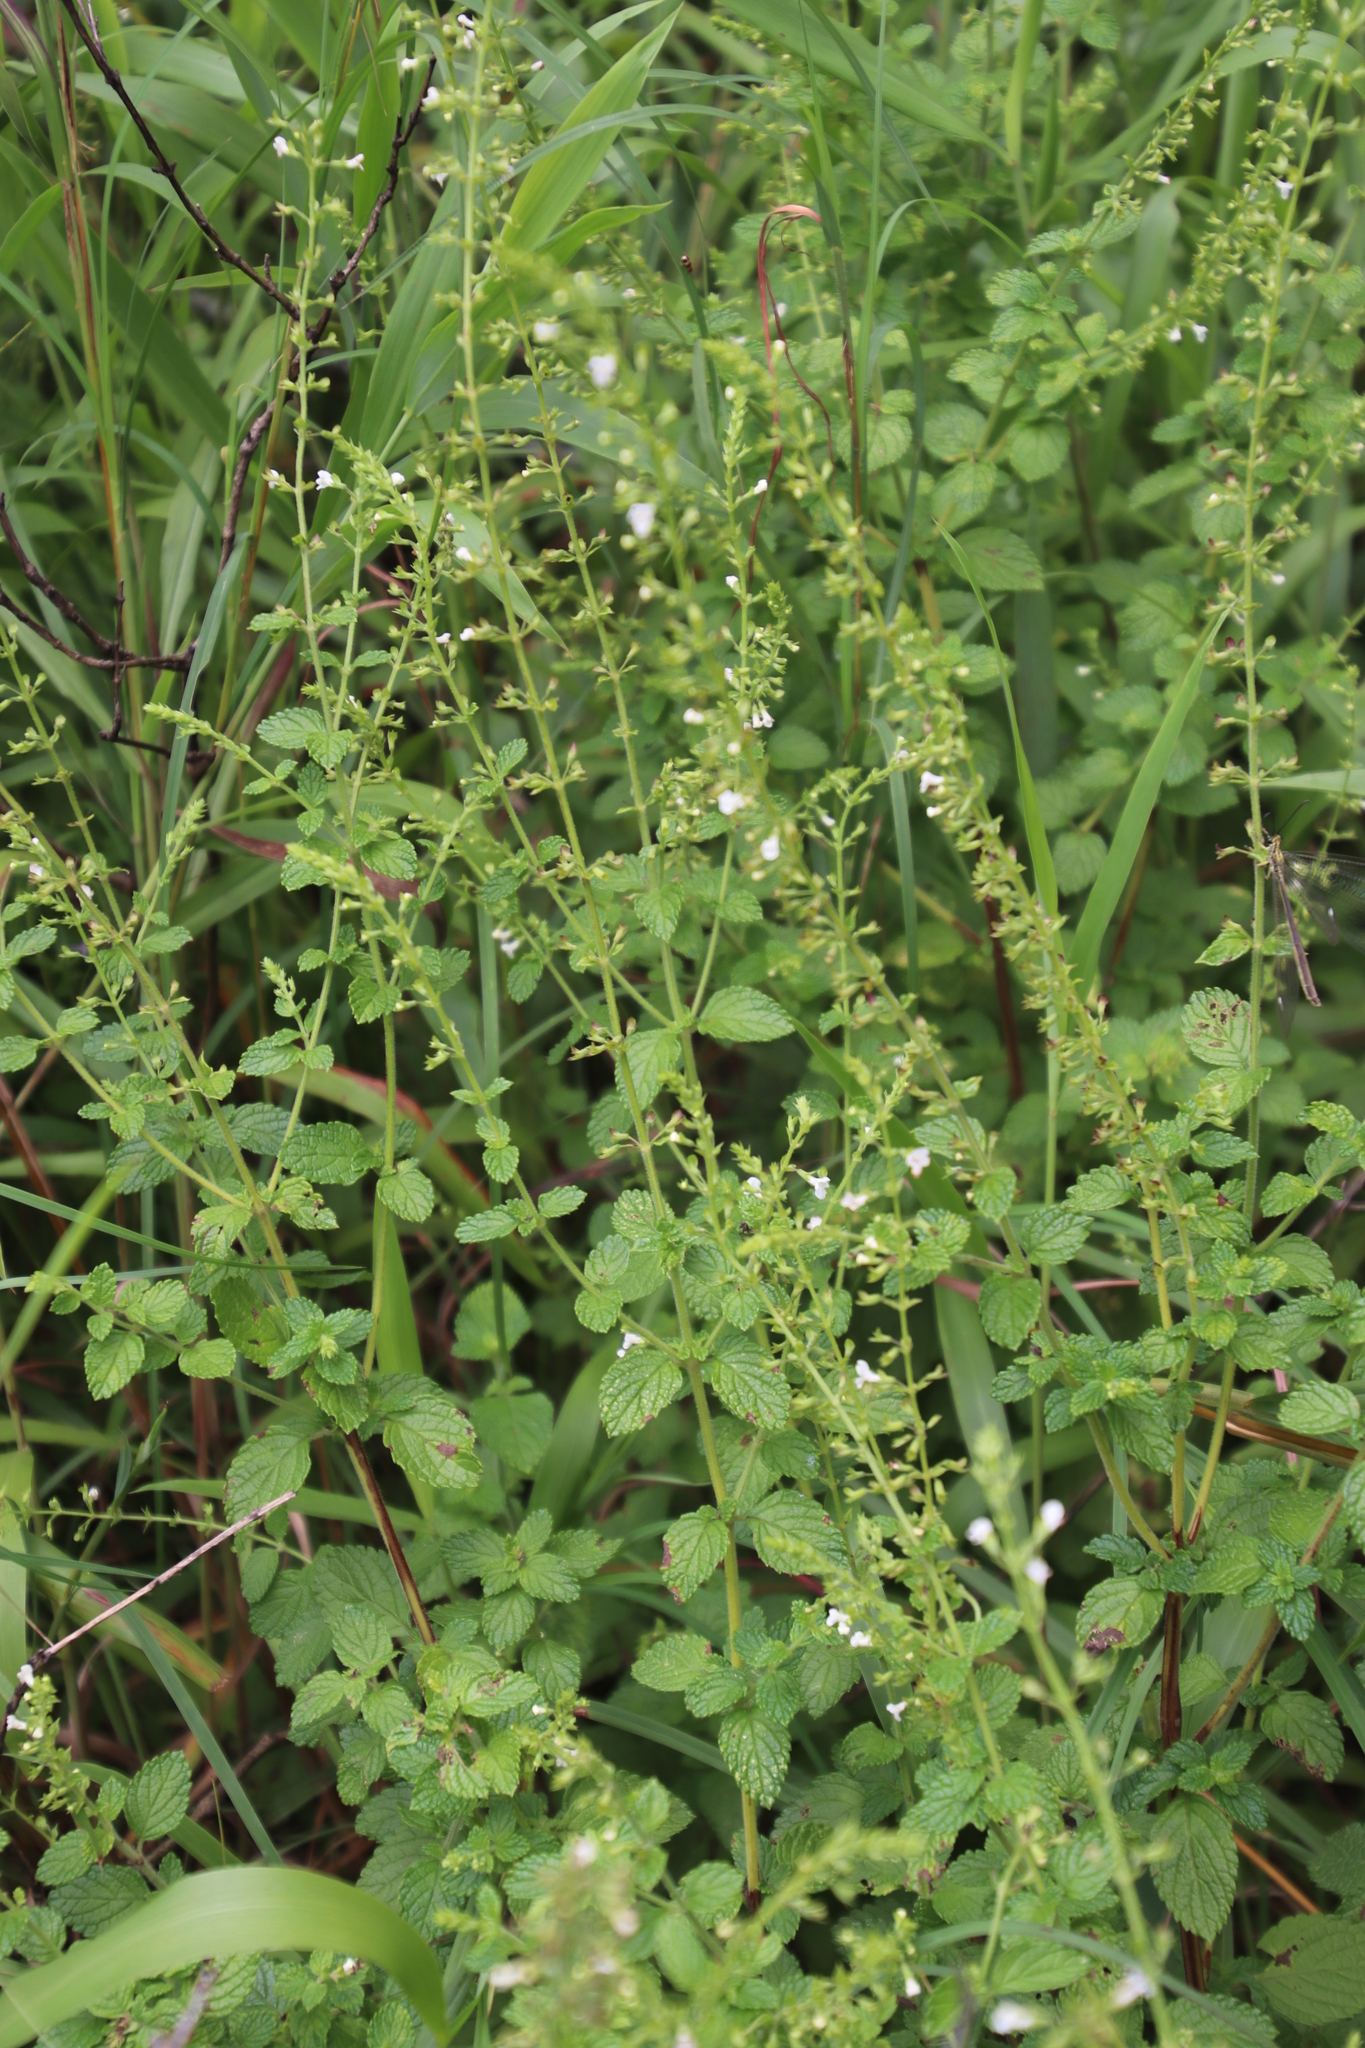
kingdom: Plantae
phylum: Tracheophyta
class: Magnoliopsida
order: Lamiales
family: Lamiaceae
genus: Endostemon
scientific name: Endostemon obtusifolius
